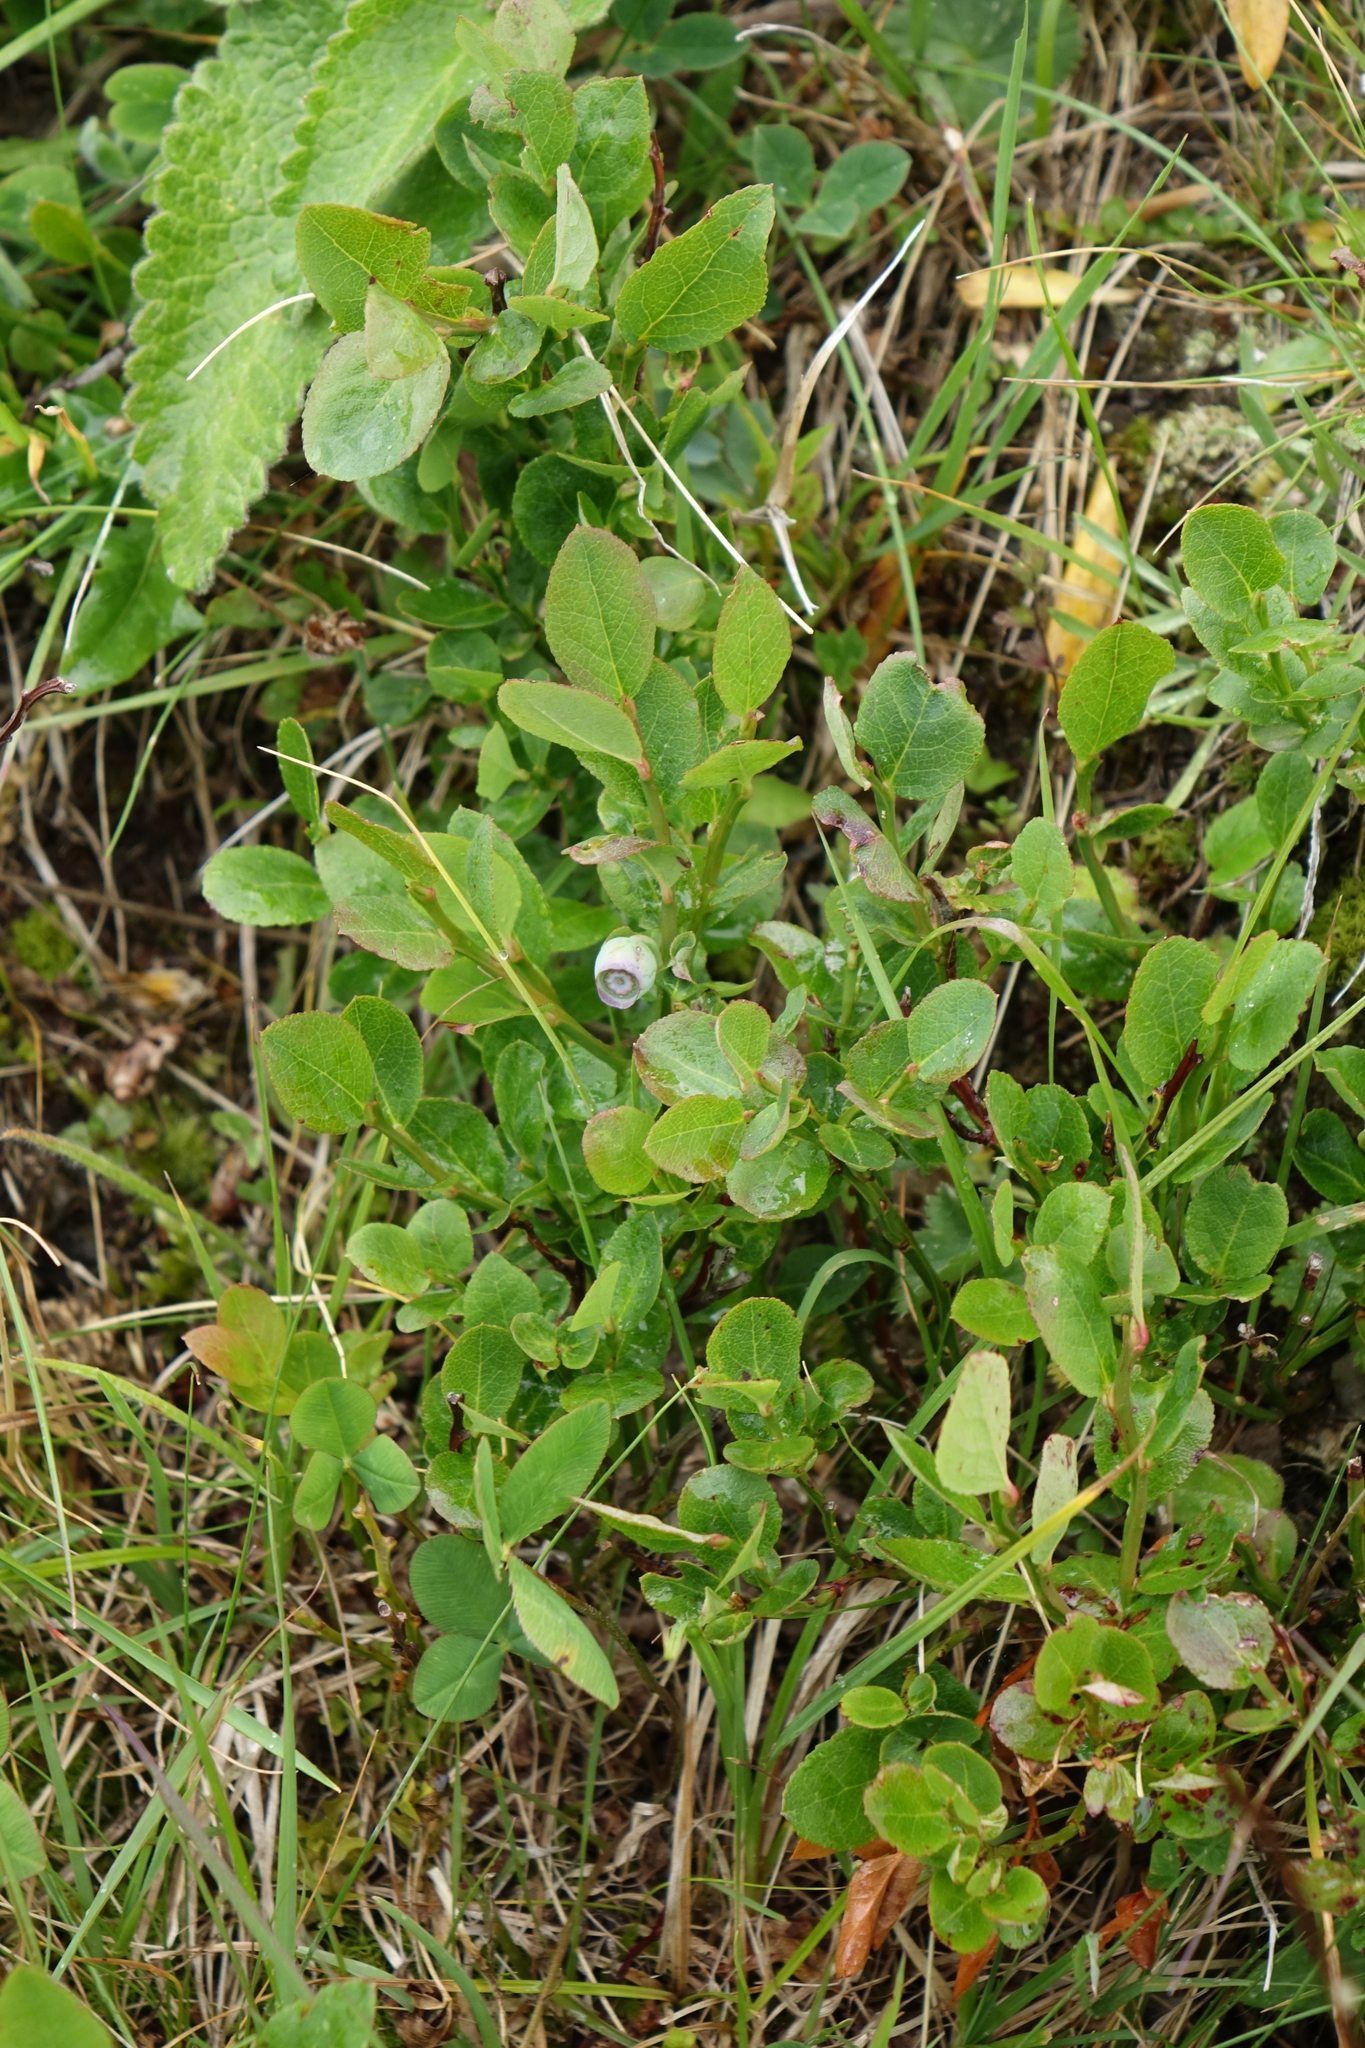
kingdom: Plantae
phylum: Tracheophyta
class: Magnoliopsida
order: Ericales
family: Ericaceae
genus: Vaccinium
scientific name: Vaccinium myrtillus
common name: Bilberry
